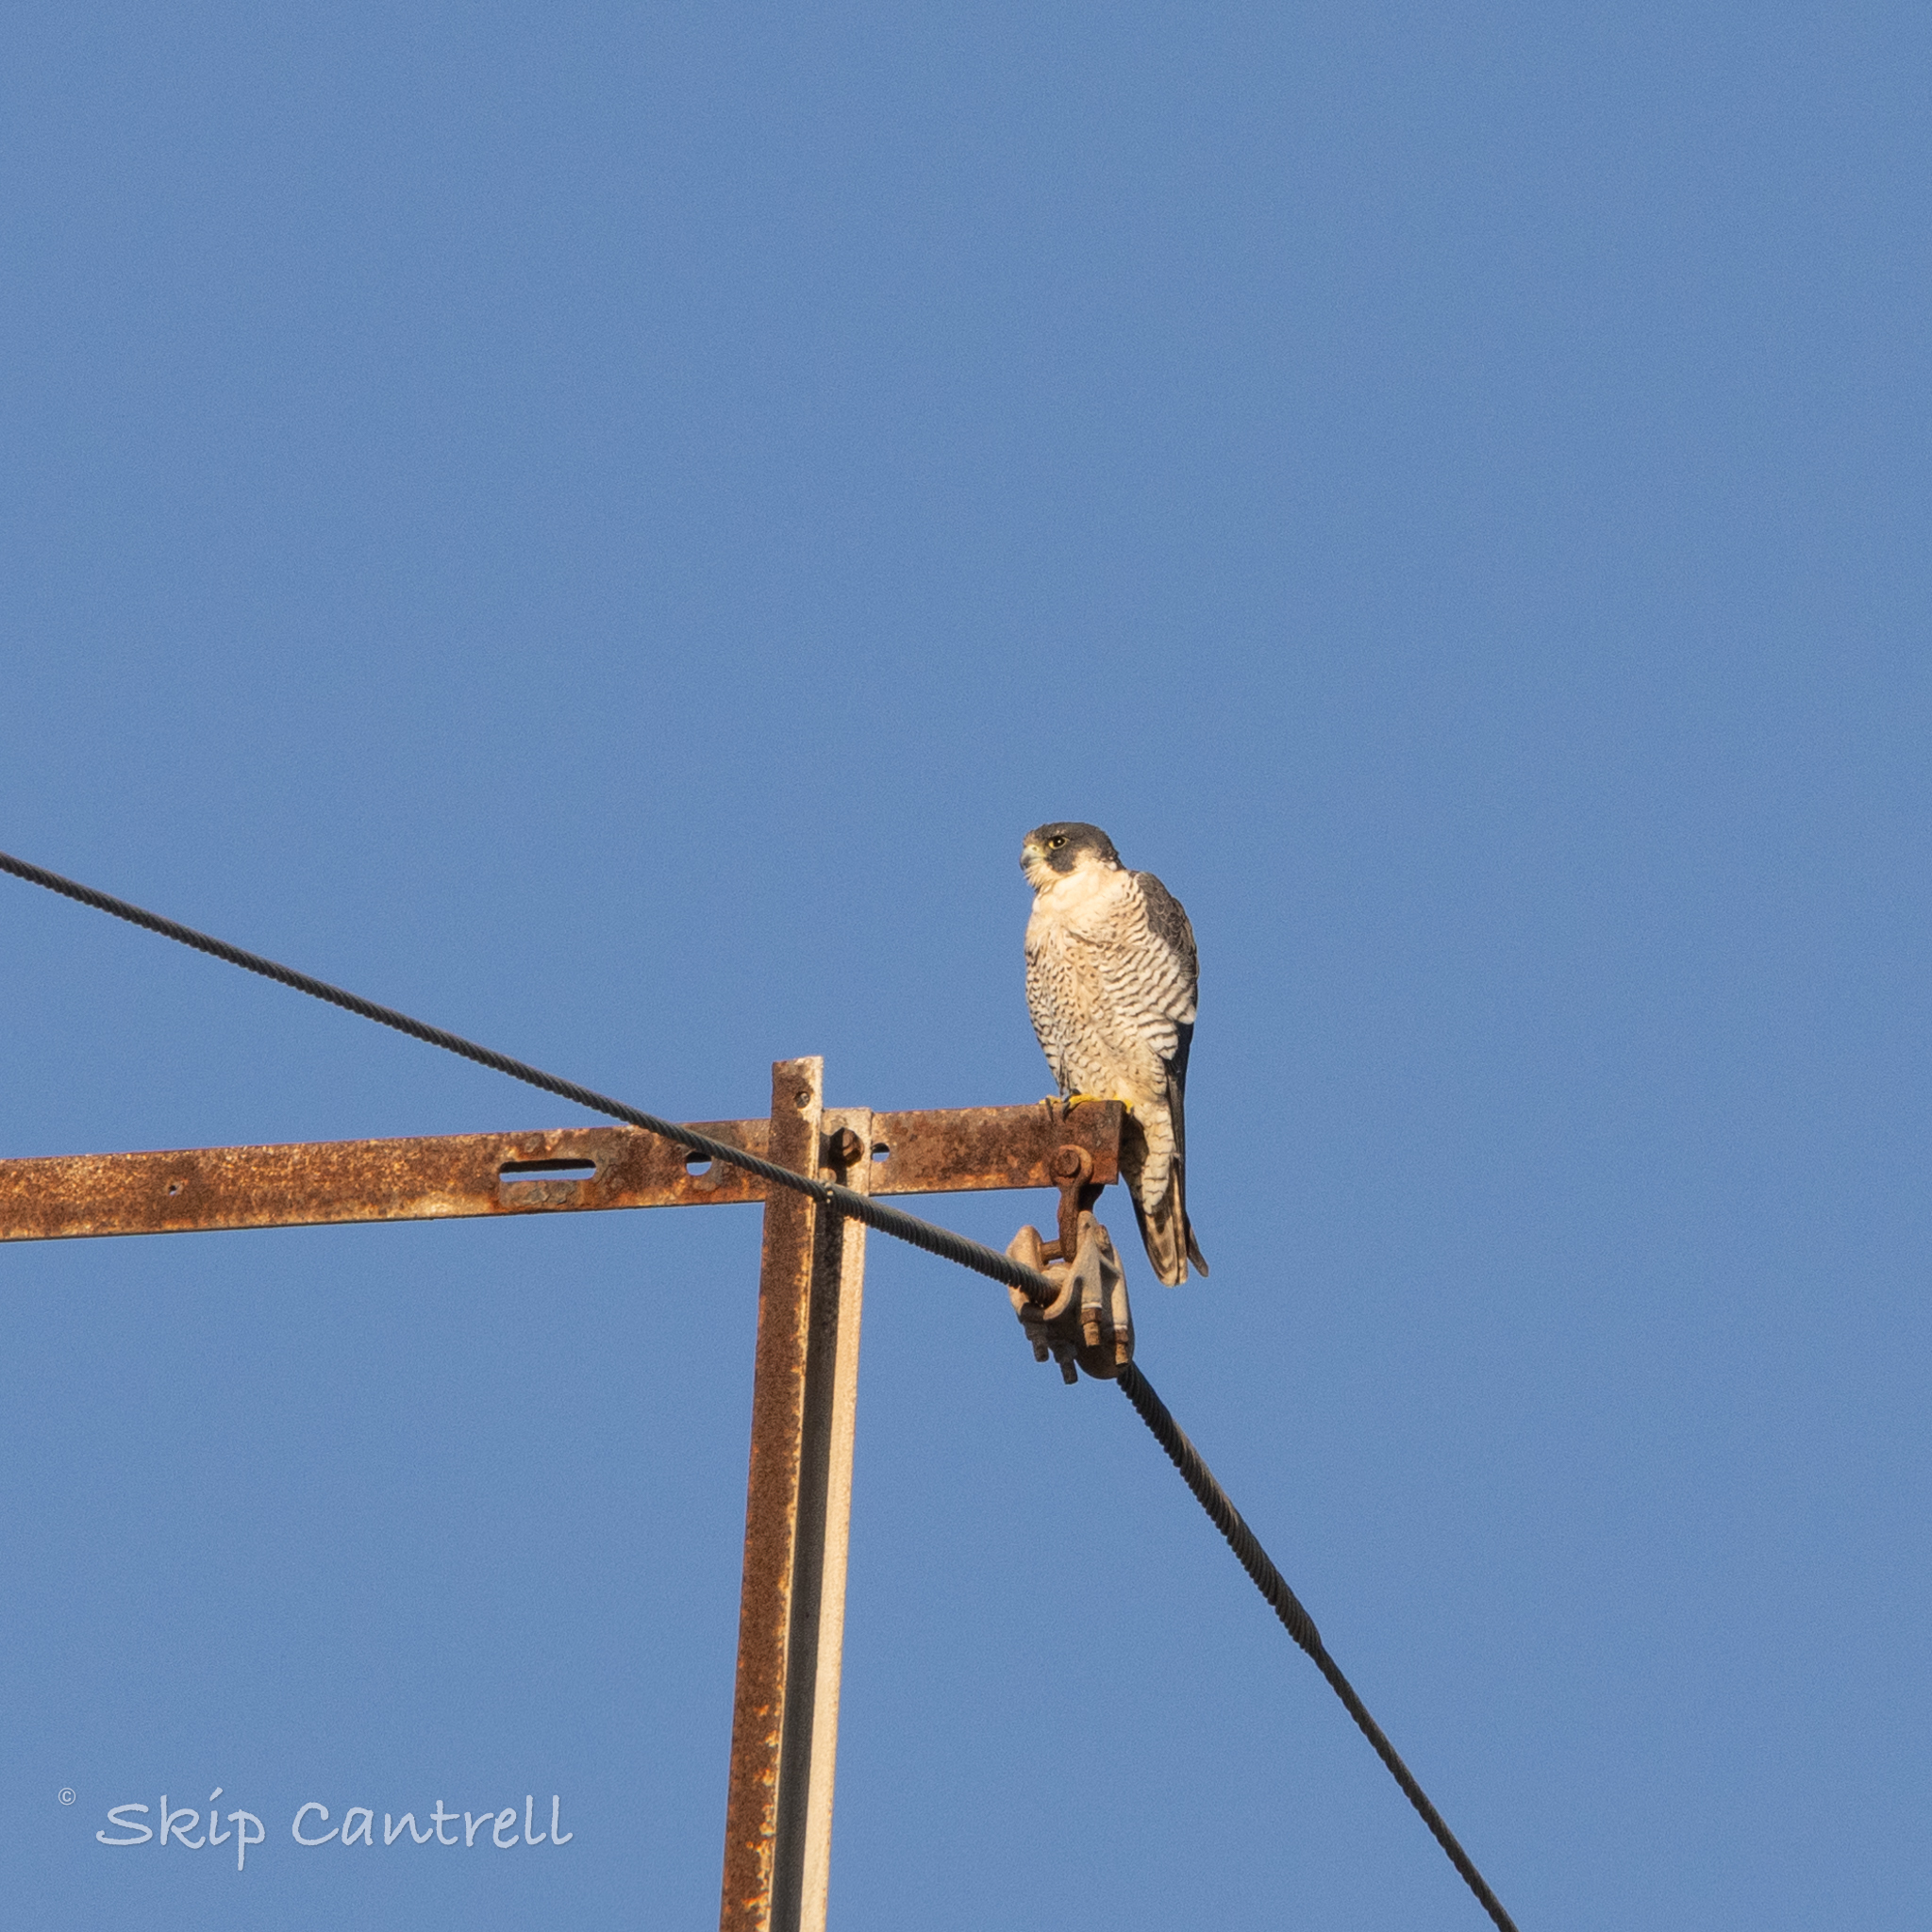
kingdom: Animalia
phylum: Chordata
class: Aves
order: Falconiformes
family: Falconidae
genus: Falco
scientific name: Falco peregrinus
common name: Peregrine falcon
